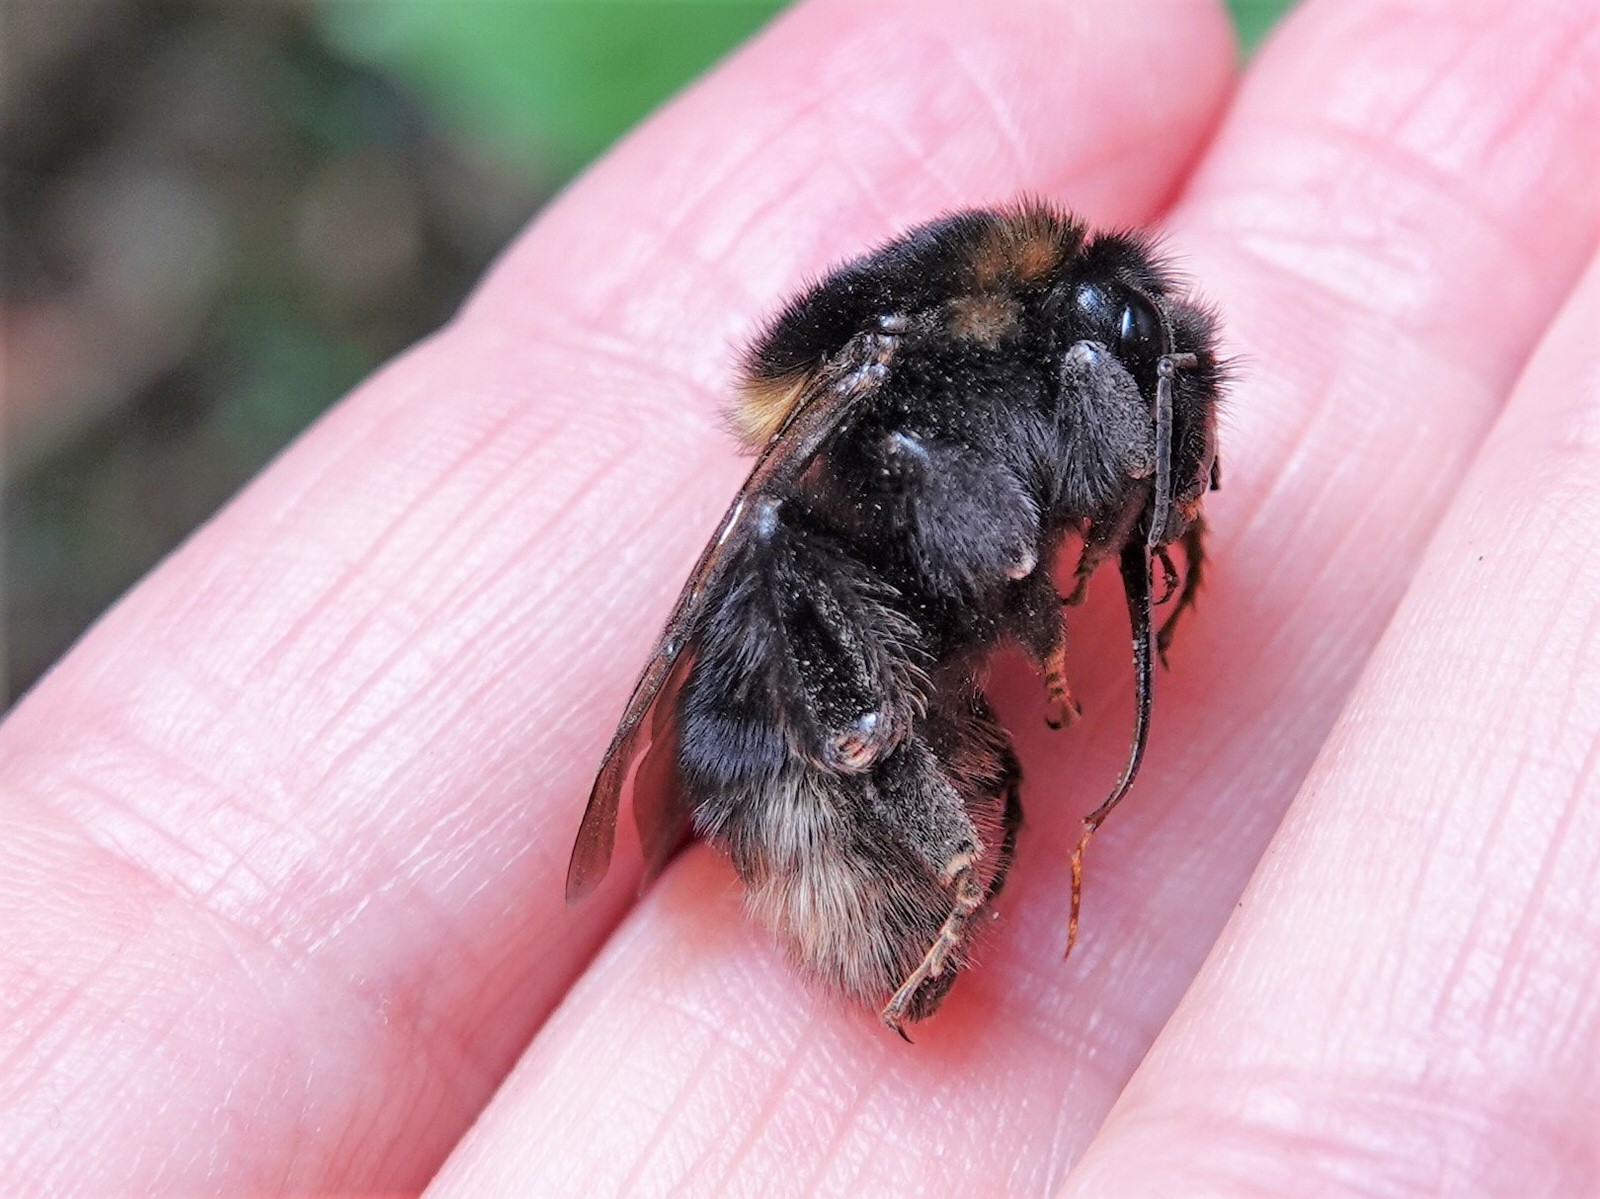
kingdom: Animalia
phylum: Arthropoda
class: Insecta
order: Hymenoptera
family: Apidae
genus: Bombus
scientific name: Bombus ruderatus
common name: Large garden bumblebee
